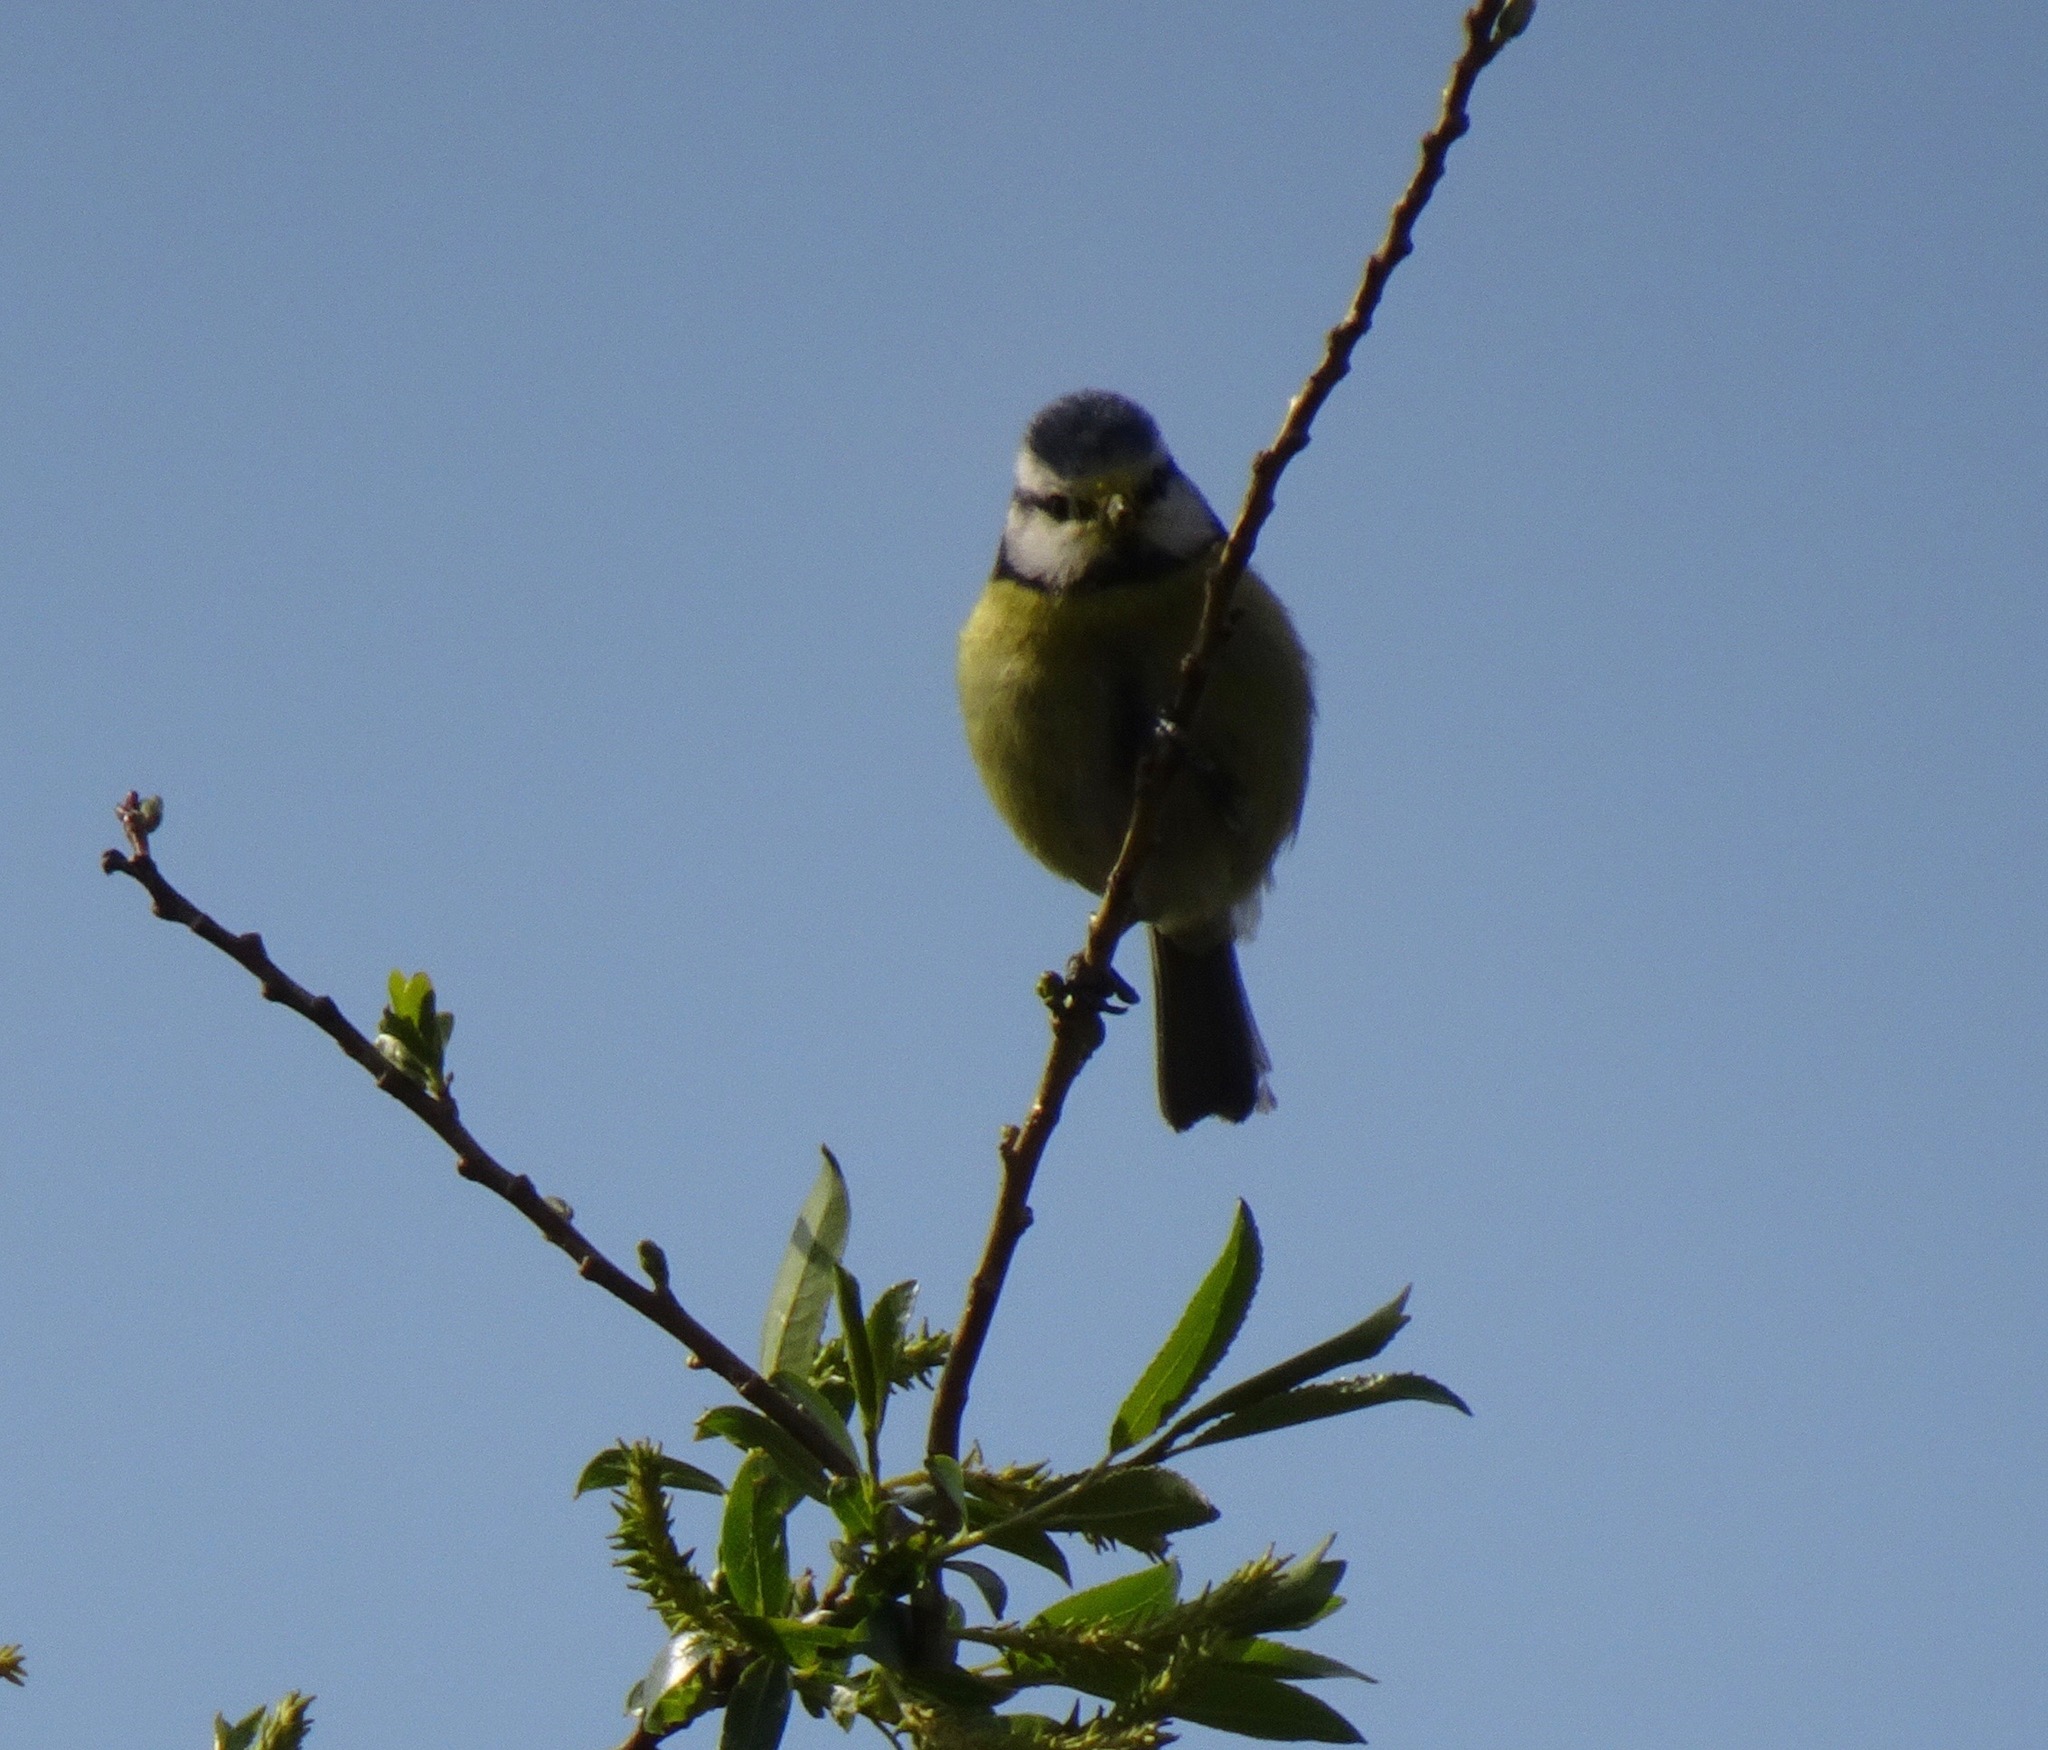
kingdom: Animalia
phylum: Chordata
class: Aves
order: Passeriformes
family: Paridae
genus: Cyanistes
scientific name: Cyanistes caeruleus
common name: Eurasian blue tit
